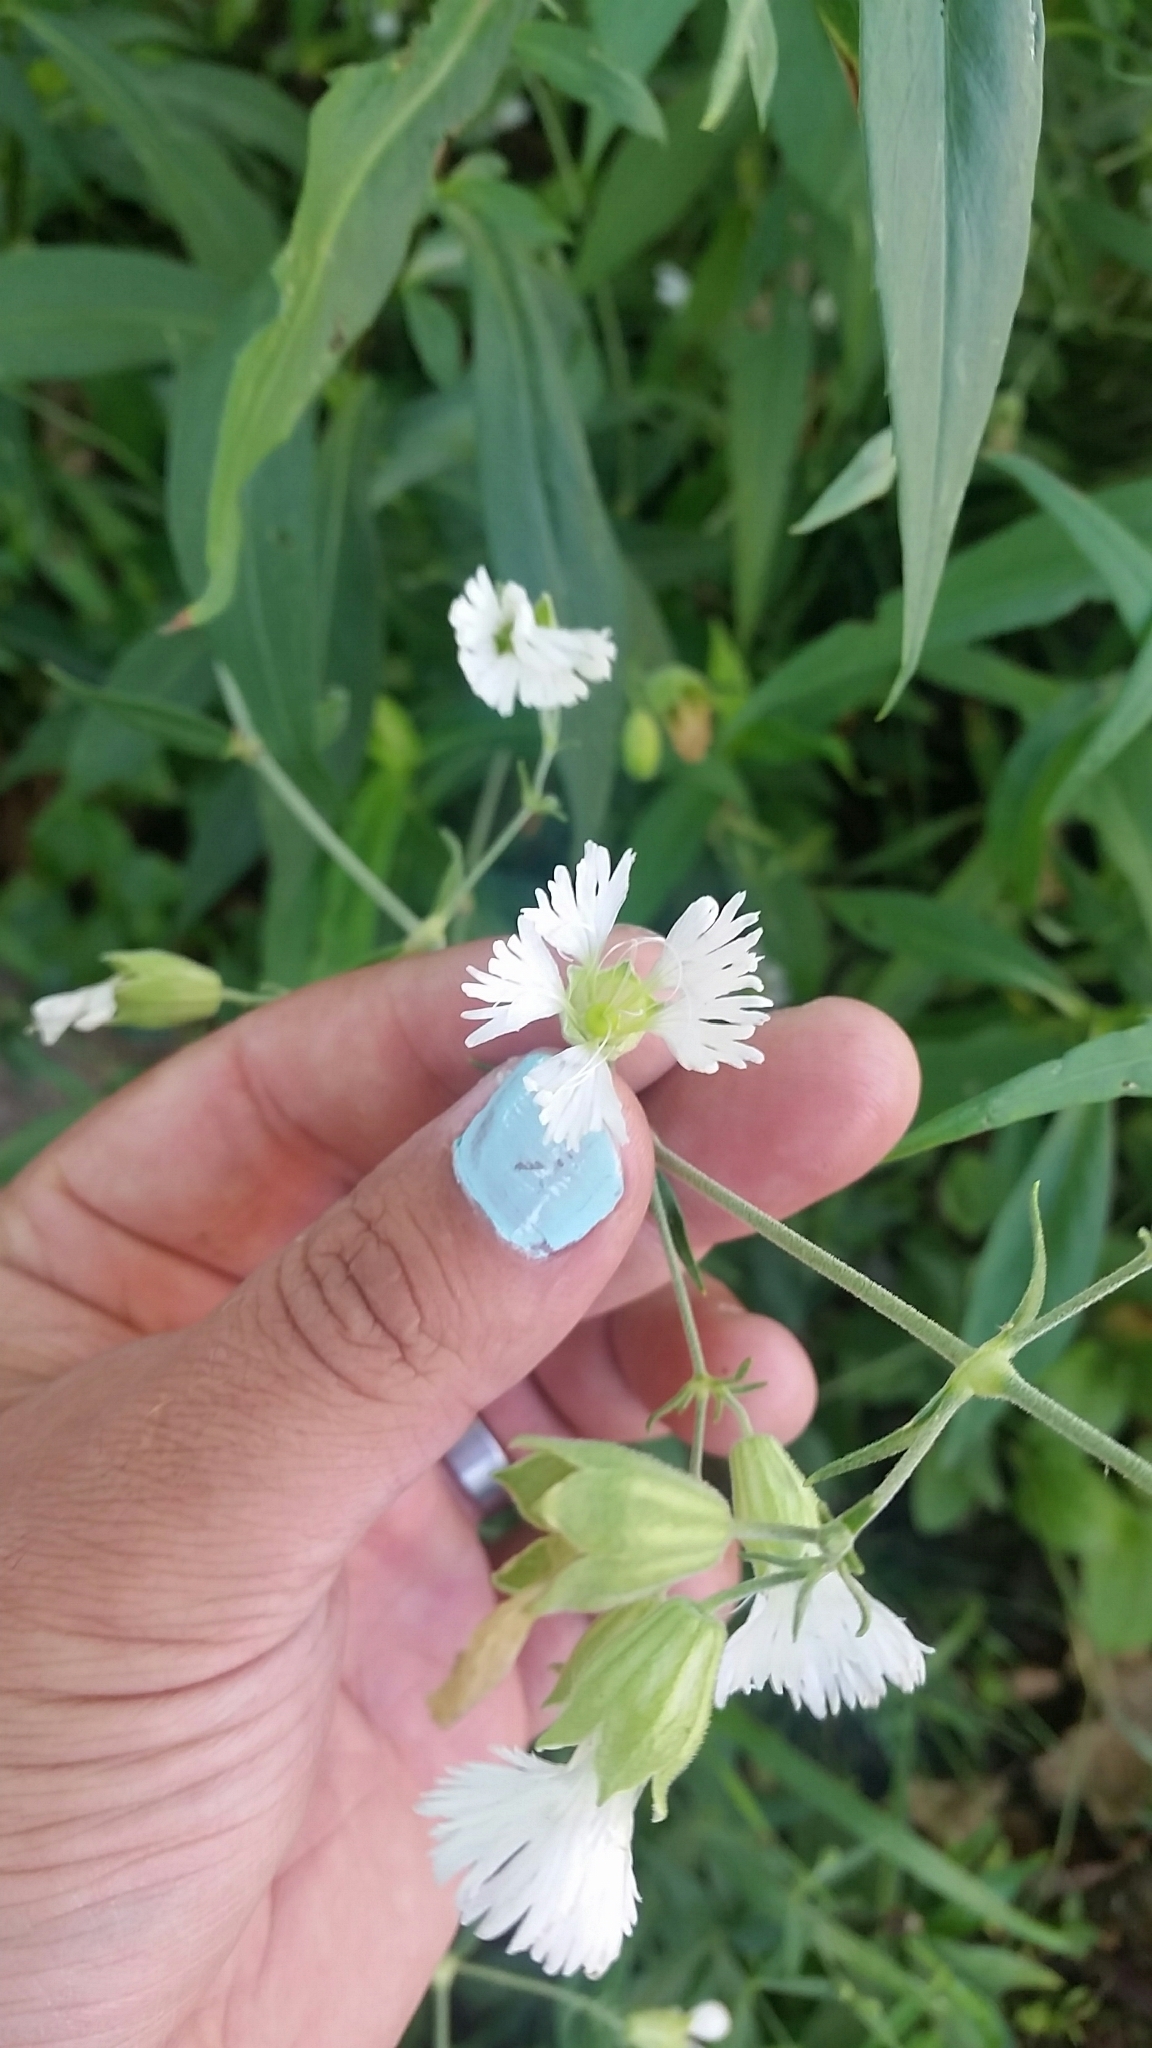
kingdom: Plantae
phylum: Tracheophyta
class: Magnoliopsida
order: Caryophyllales
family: Caryophyllaceae
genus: Silene
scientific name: Silene stellata
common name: Starry campion
